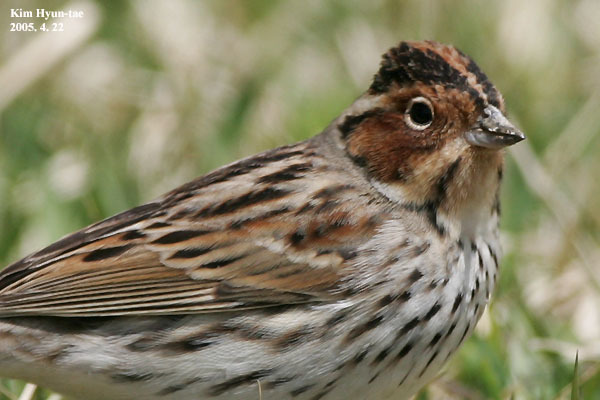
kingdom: Animalia
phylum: Chordata
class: Aves
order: Passeriformes
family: Emberizidae
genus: Emberiza
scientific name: Emberiza pusilla
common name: Little bunting
